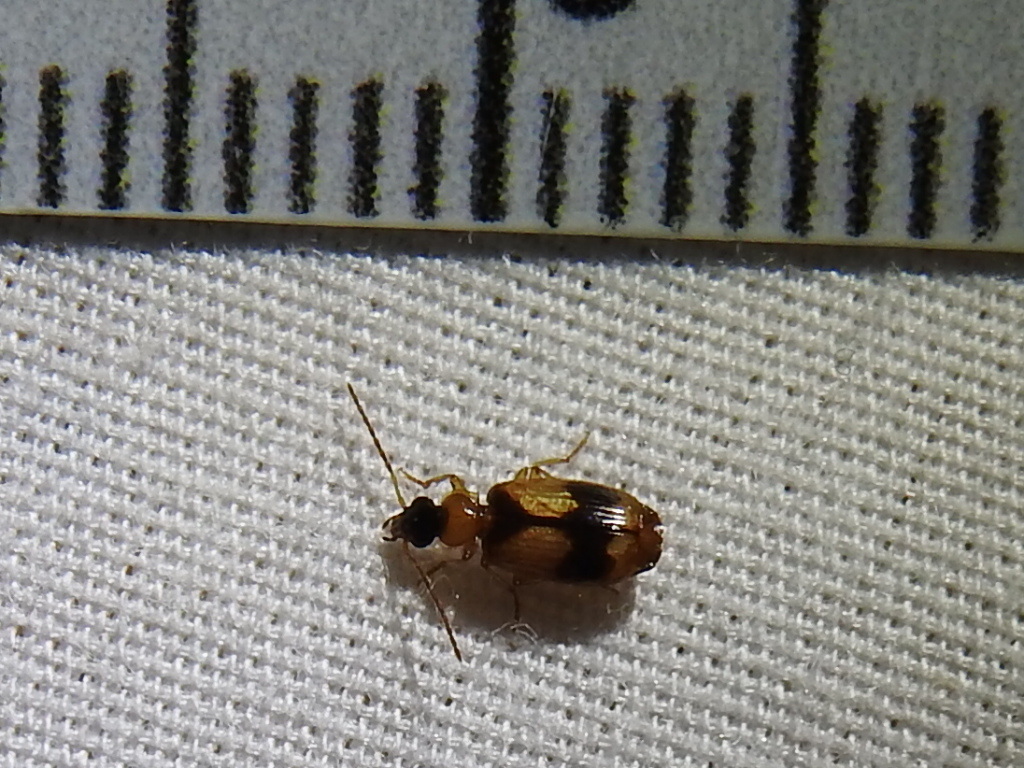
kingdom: Animalia
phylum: Arthropoda
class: Insecta
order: Coleoptera
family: Carabidae
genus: Lebia
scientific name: Lebia esurialis
